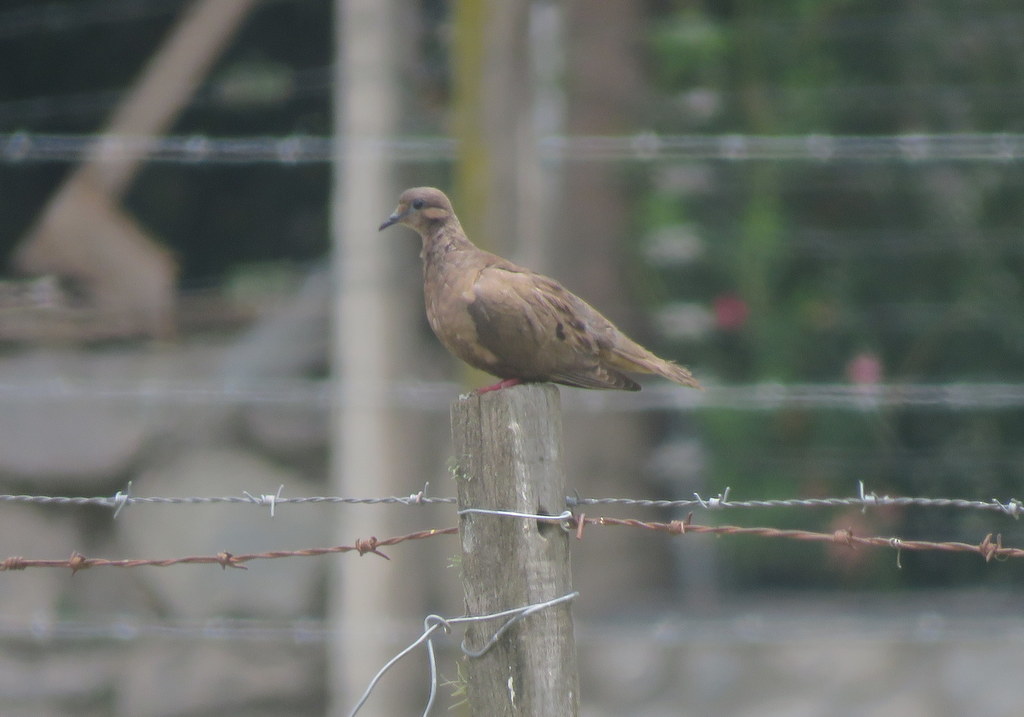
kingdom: Animalia
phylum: Chordata
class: Aves
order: Columbiformes
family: Columbidae
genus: Zenaida
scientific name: Zenaida auriculata
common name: Eared dove
